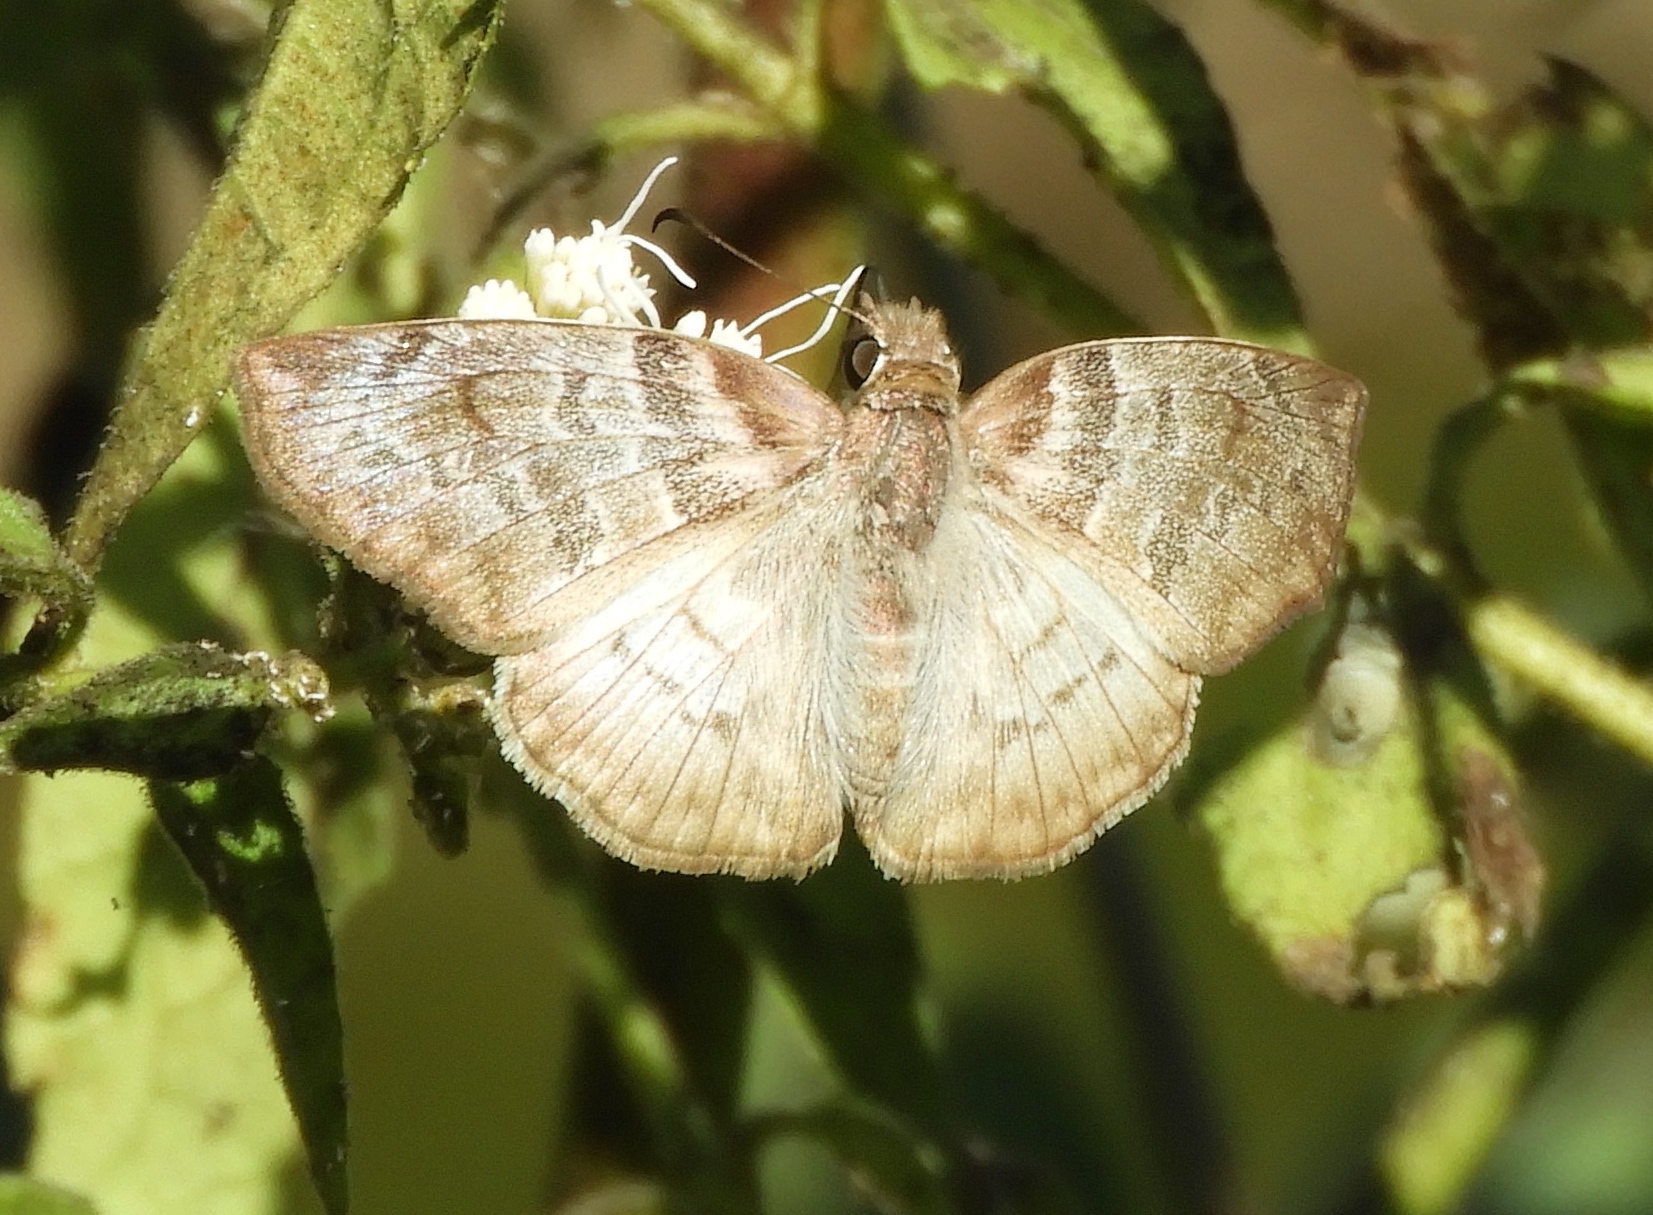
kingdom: Animalia
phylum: Arthropoda
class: Insecta
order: Lepidoptera
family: Hesperiidae
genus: Mylon
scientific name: Mylon pelopidas
